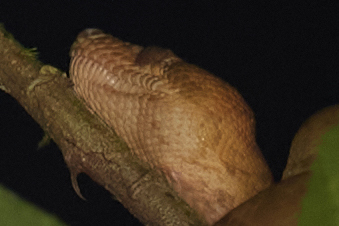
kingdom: Animalia
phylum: Chordata
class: Squamata
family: Boidae
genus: Corallus
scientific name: Corallus annulatus
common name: Ringed tree boa
